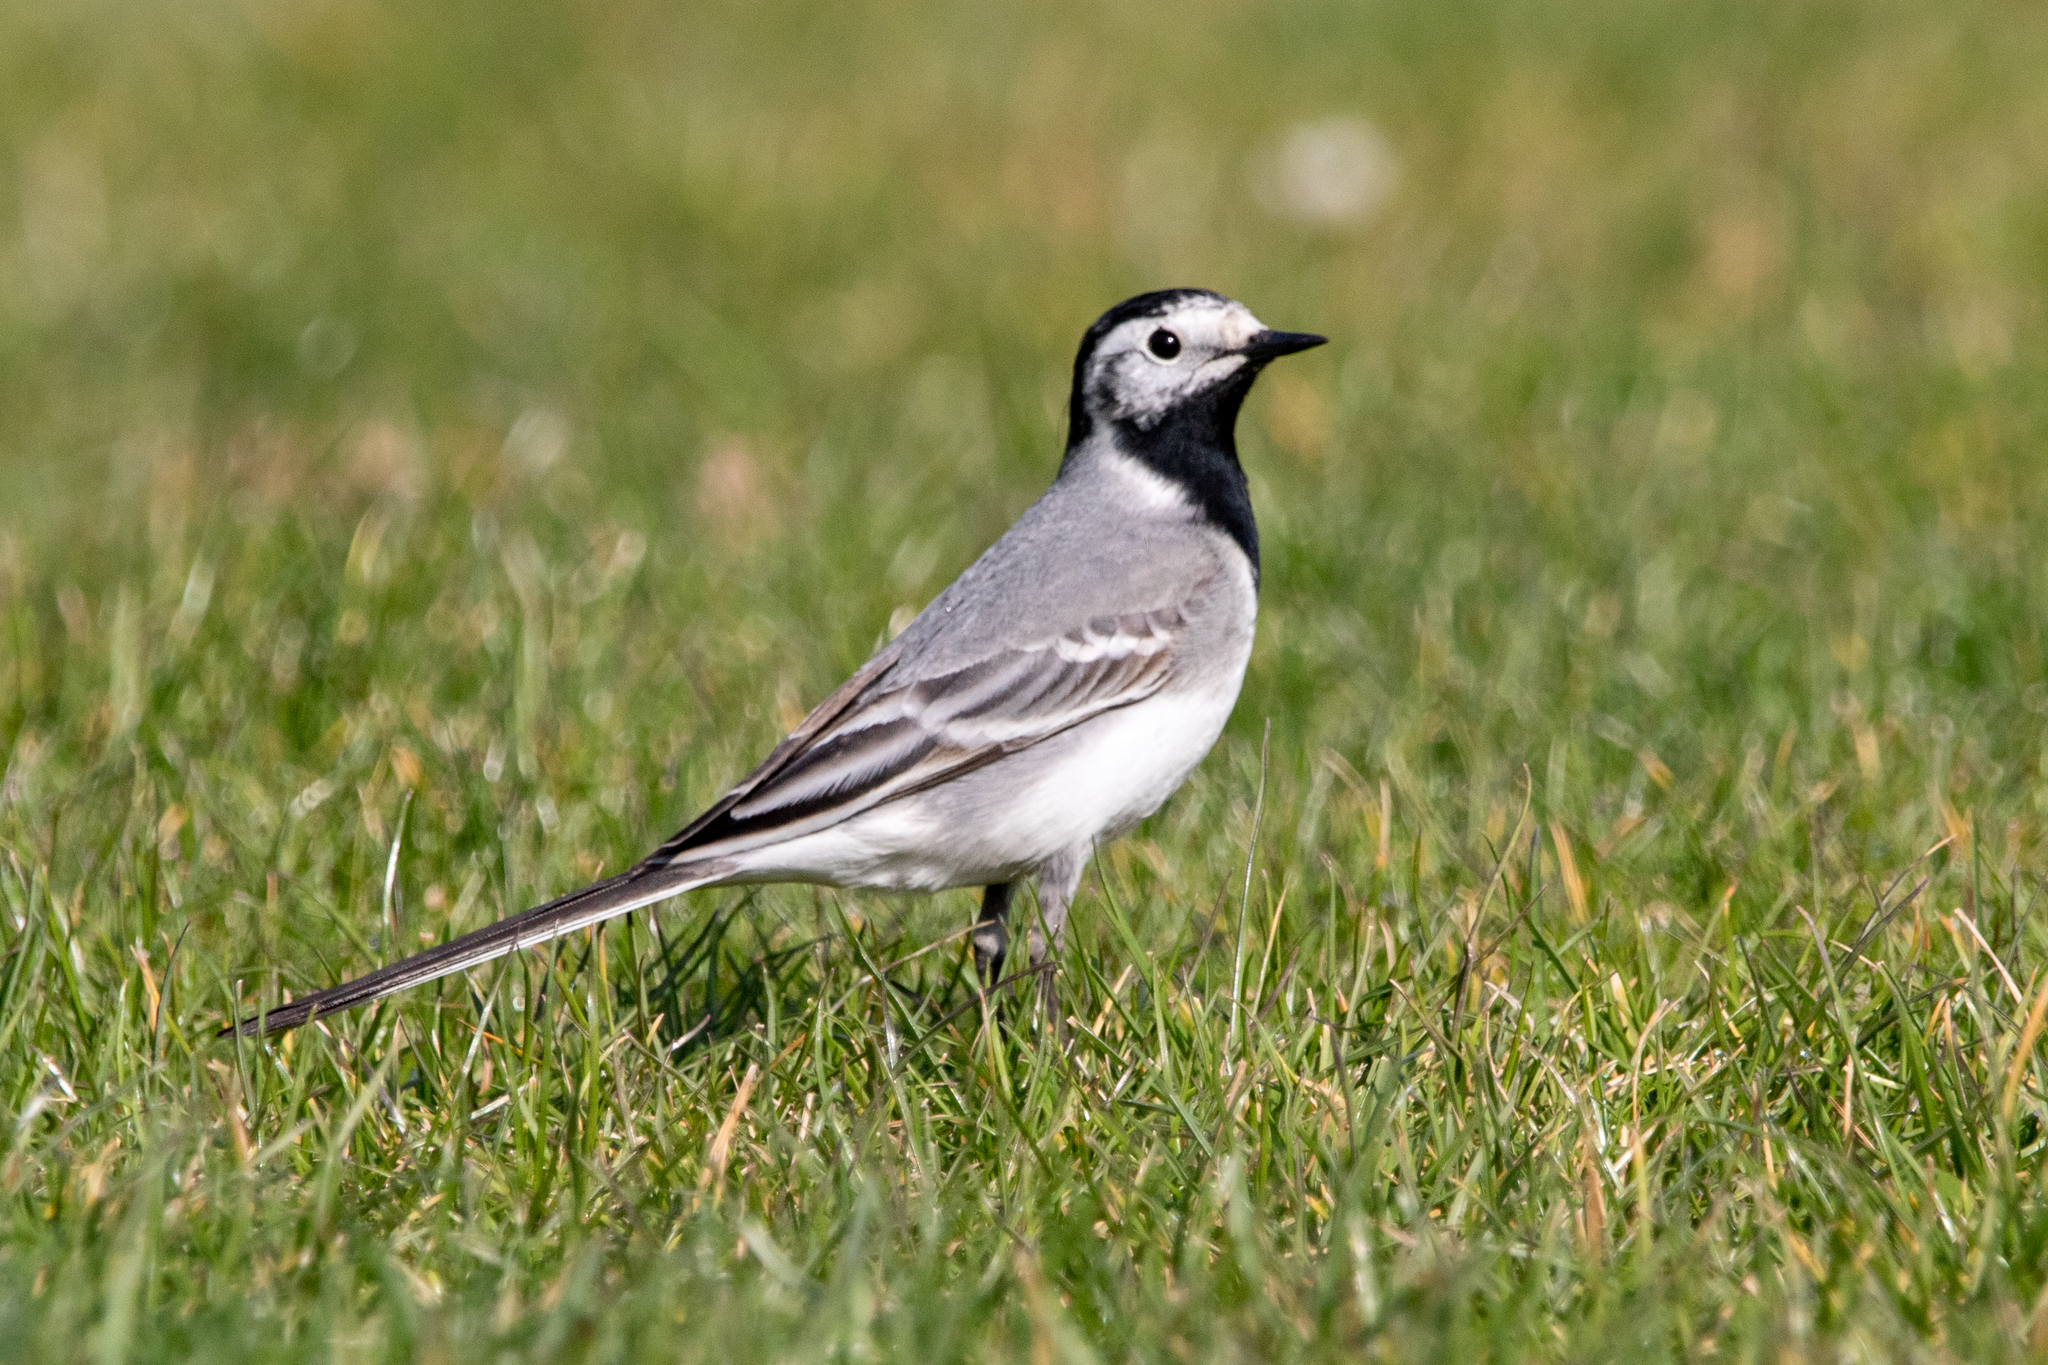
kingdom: Animalia
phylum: Chordata
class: Aves
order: Passeriformes
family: Motacillidae
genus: Motacilla
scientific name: Motacilla alba
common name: White wagtail
